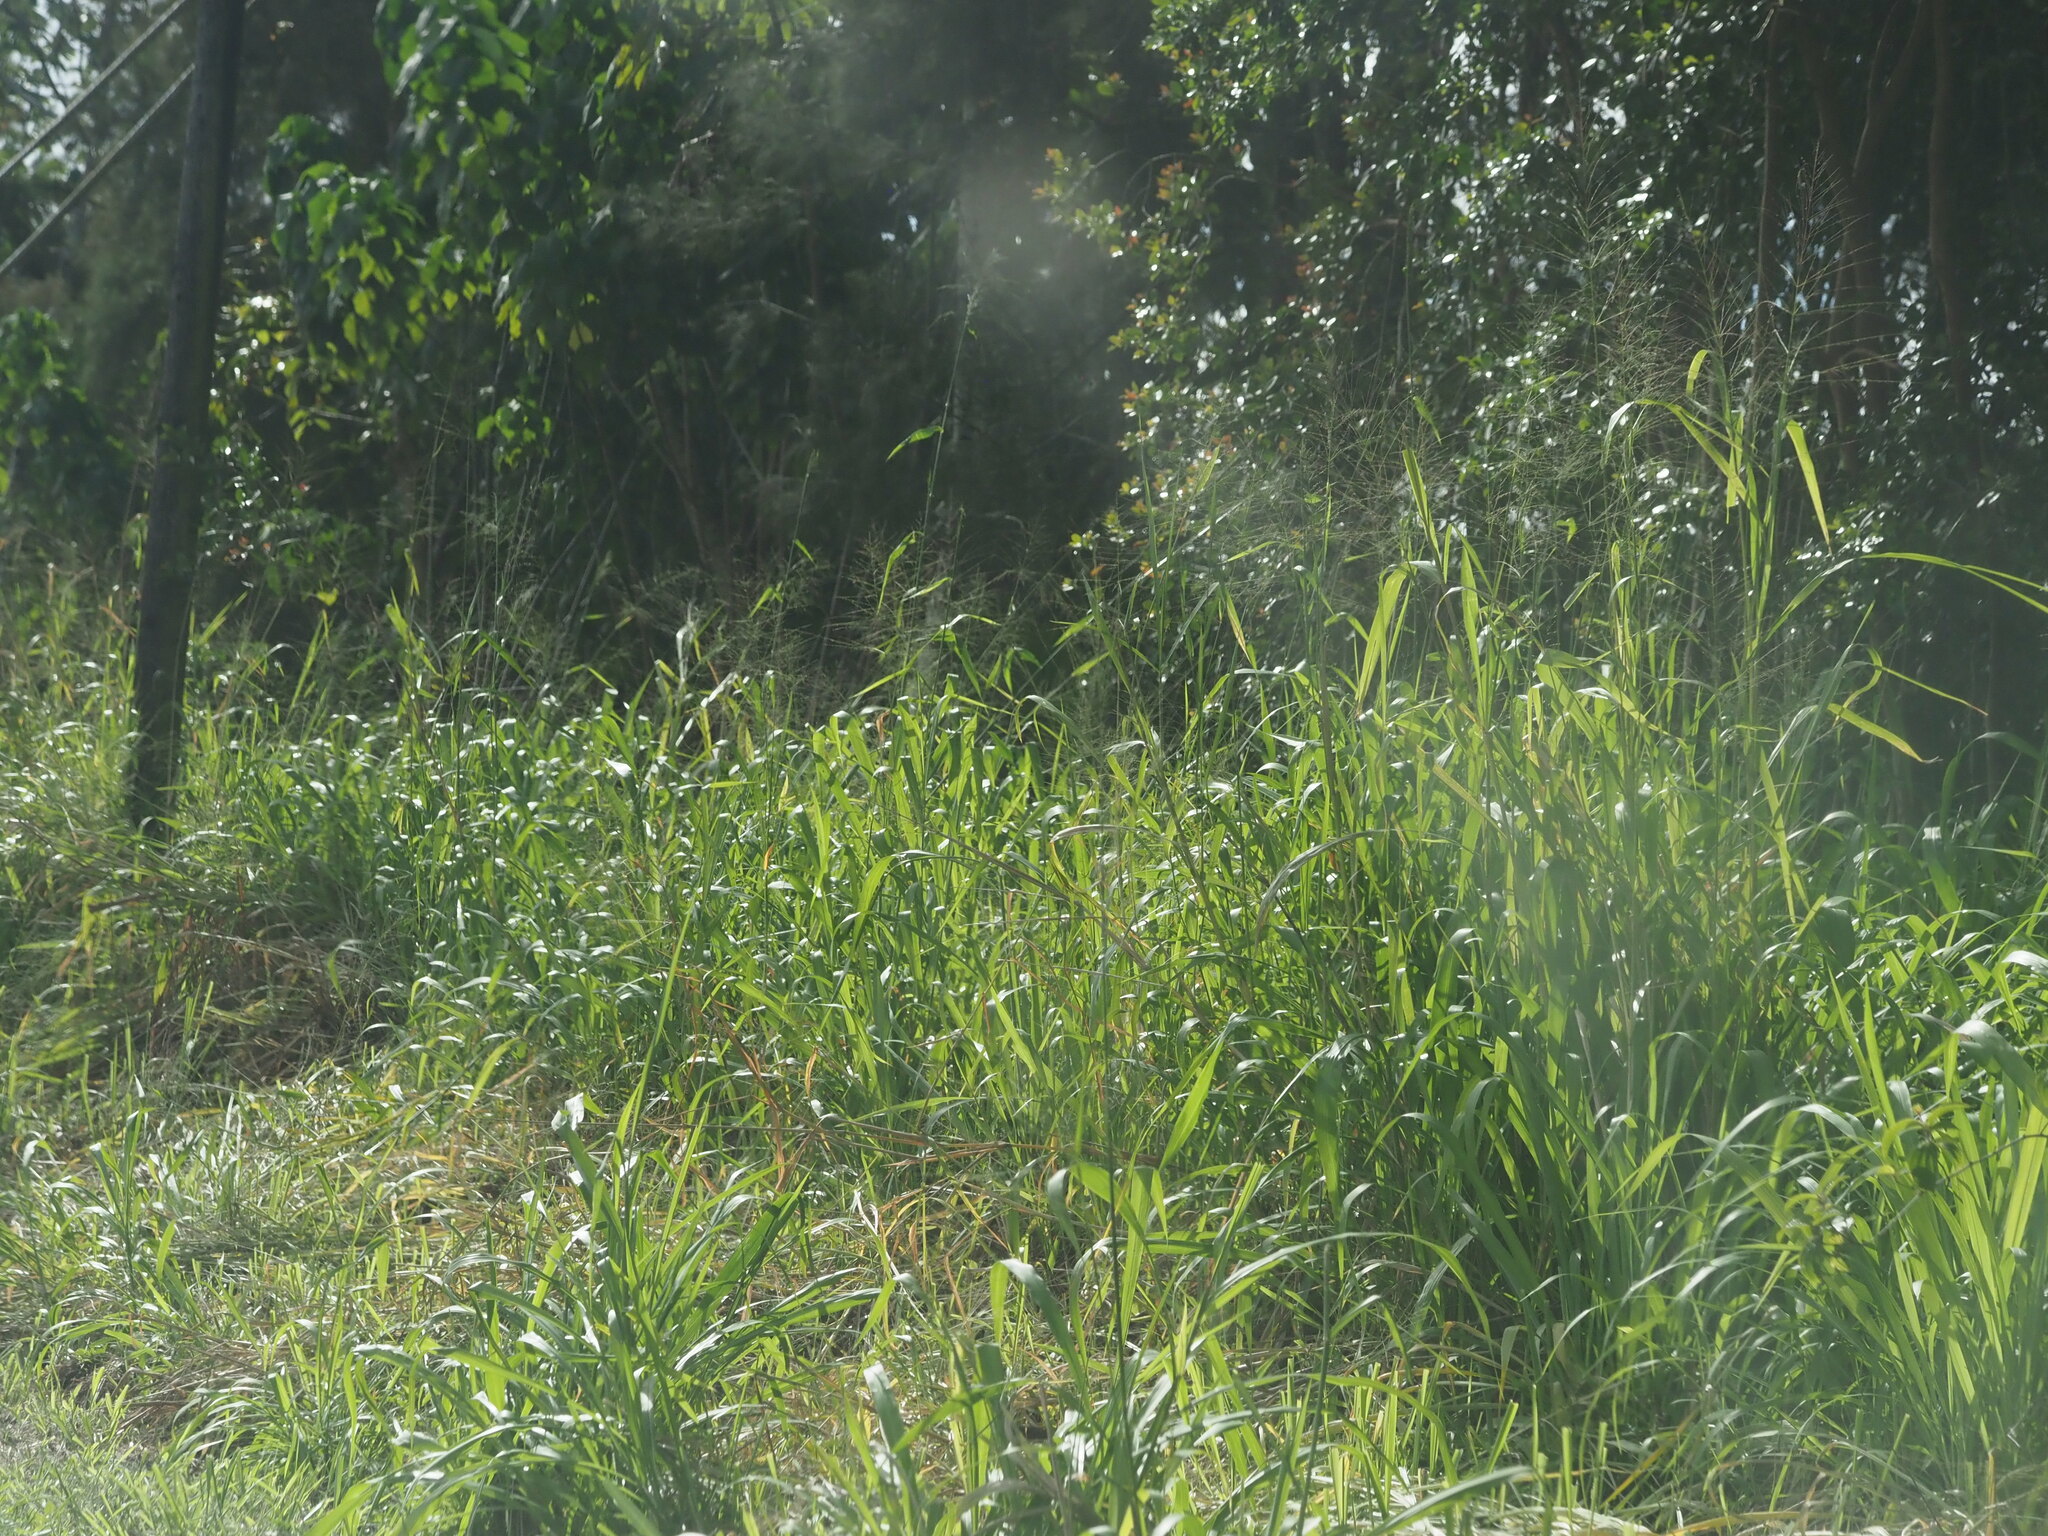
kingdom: Plantae
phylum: Tracheophyta
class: Liliopsida
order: Poales
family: Poaceae
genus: Megathyrsus
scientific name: Megathyrsus maximus
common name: Guineagrass
